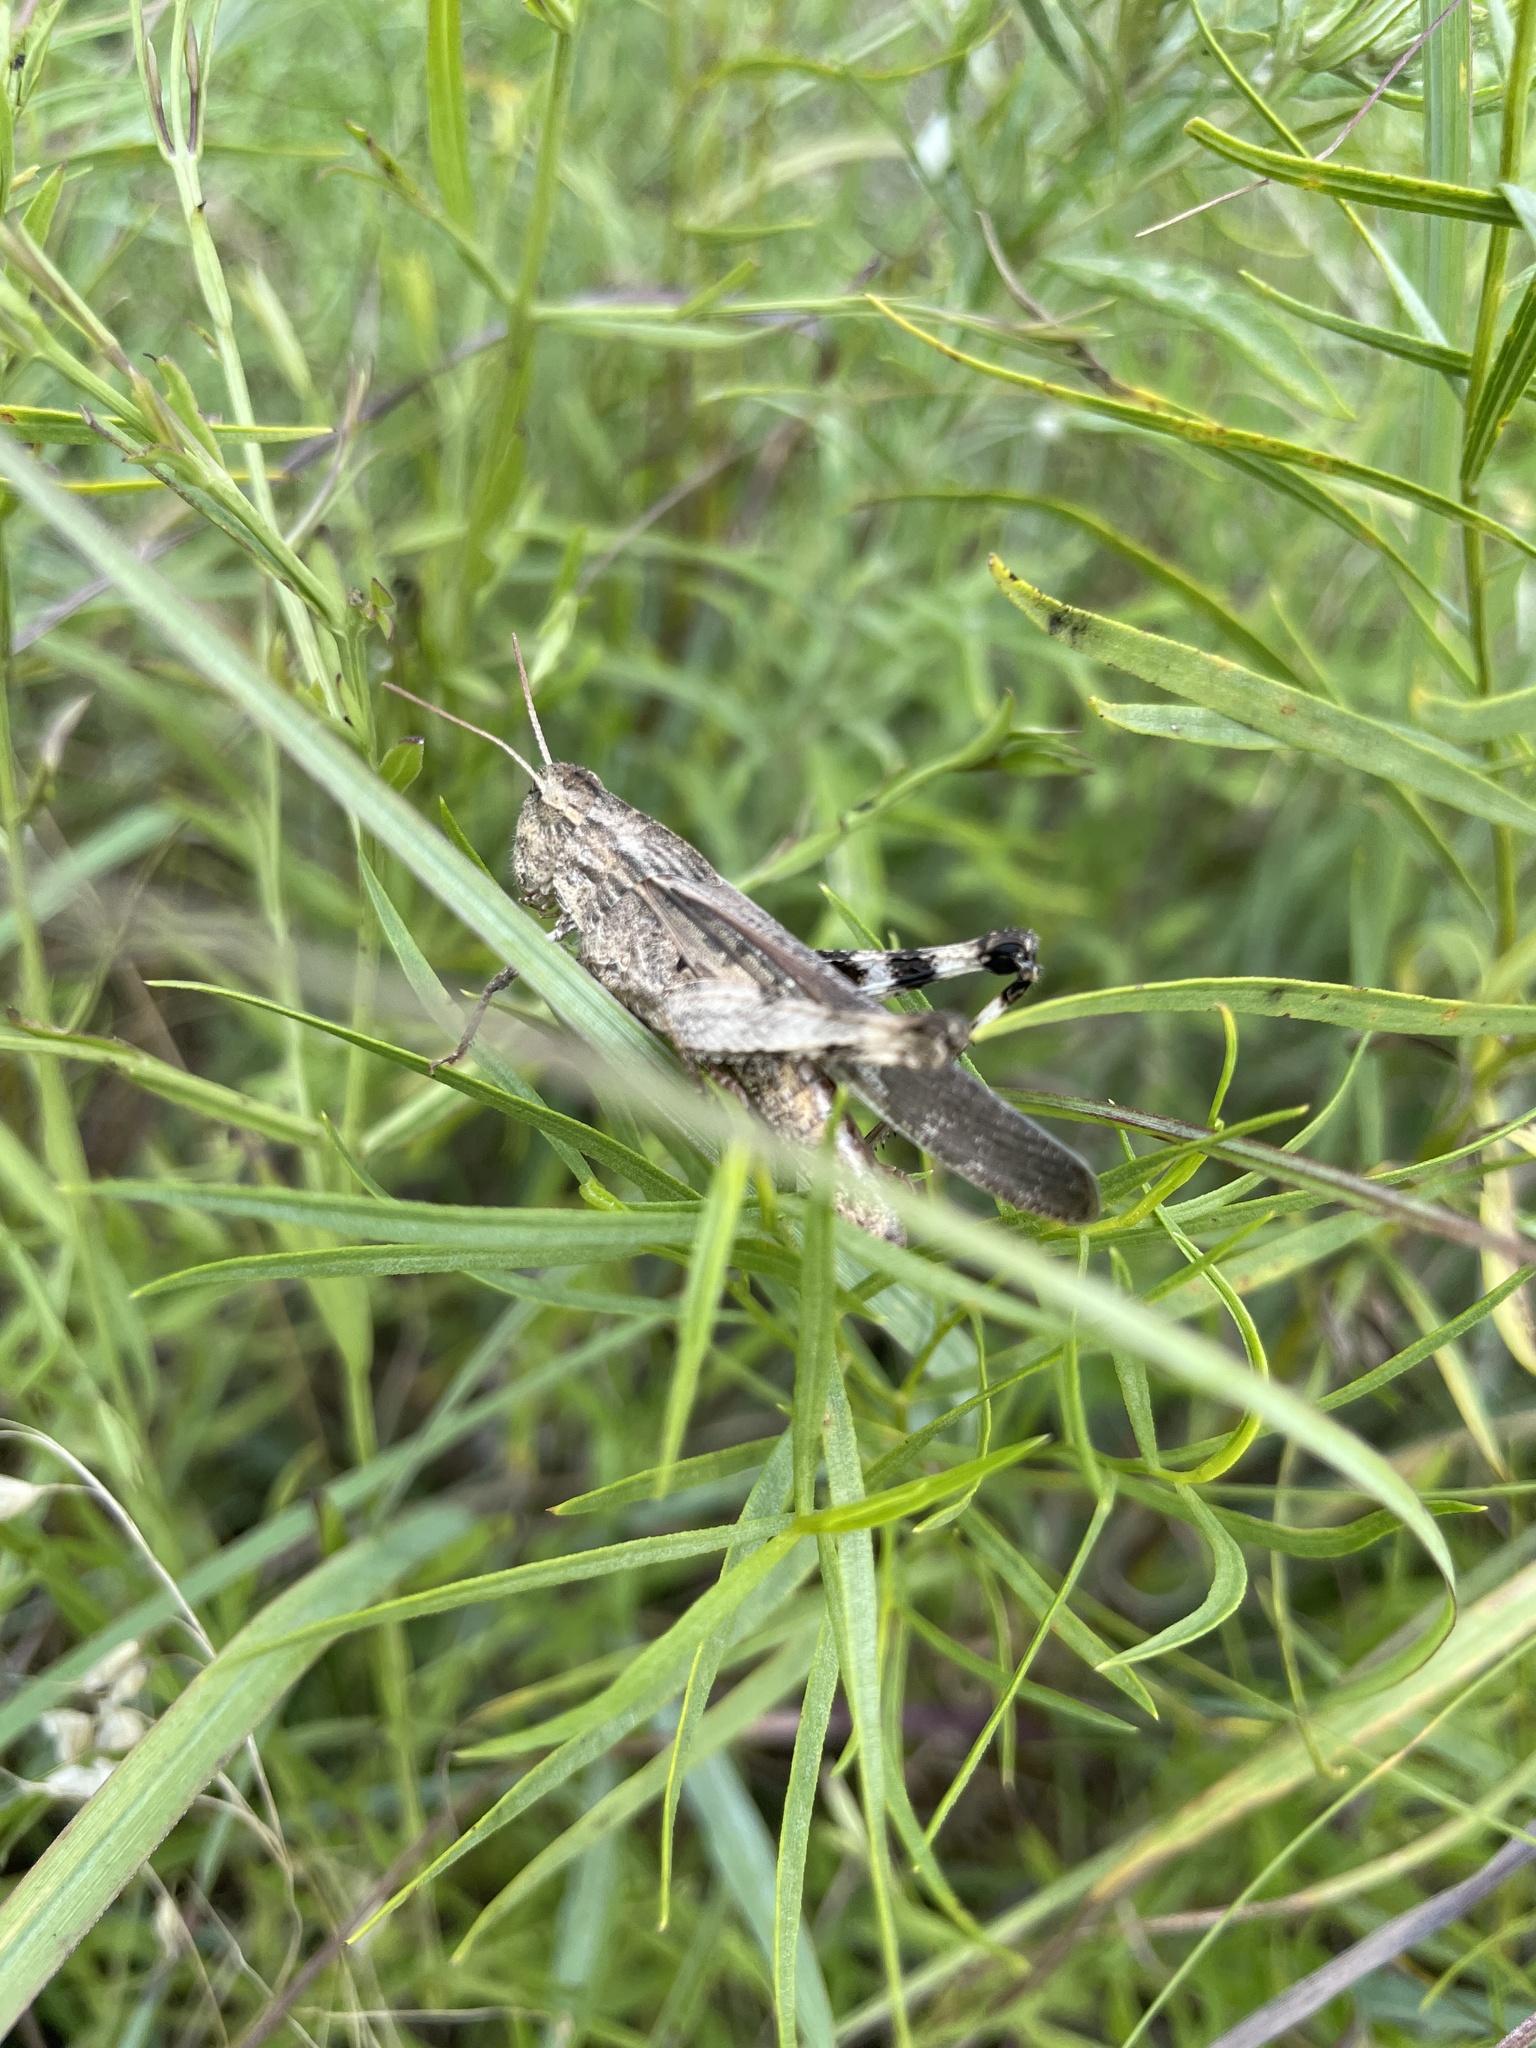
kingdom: Animalia
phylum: Arthropoda
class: Insecta
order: Orthoptera
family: Acrididae
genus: Chortophaga
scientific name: Chortophaga viridifasciata
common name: Green-striped grasshopper
